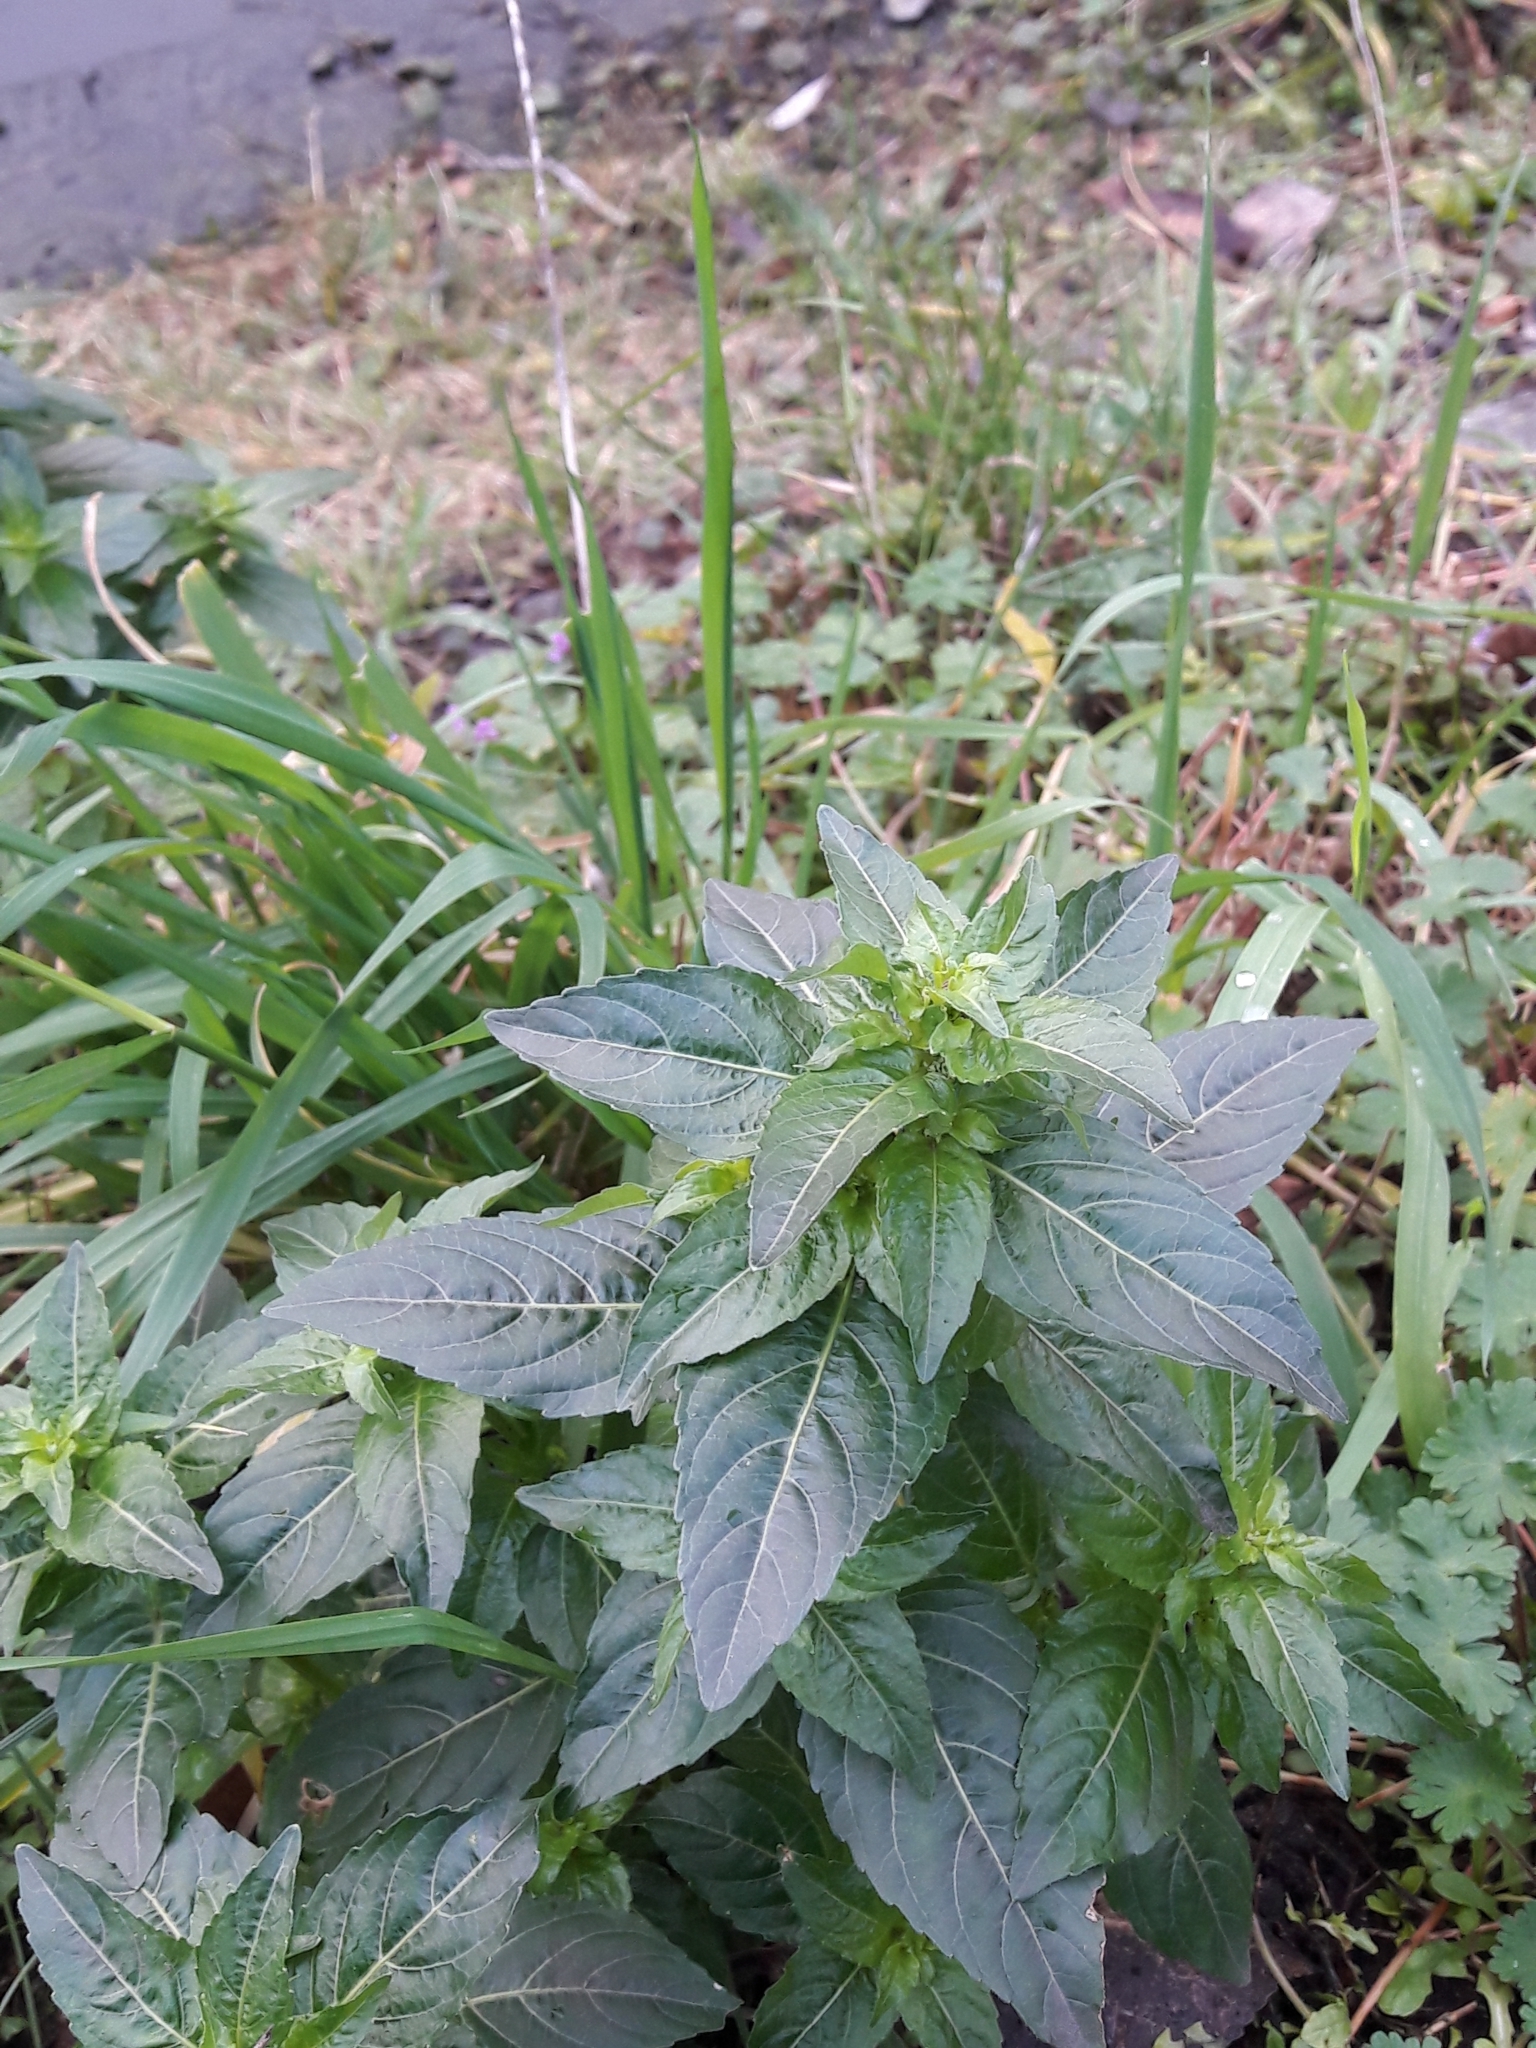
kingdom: Plantae
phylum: Tracheophyta
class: Magnoliopsida
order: Malpighiales
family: Euphorbiaceae
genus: Mercurialis
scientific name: Mercurialis annua
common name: Annual mercury
